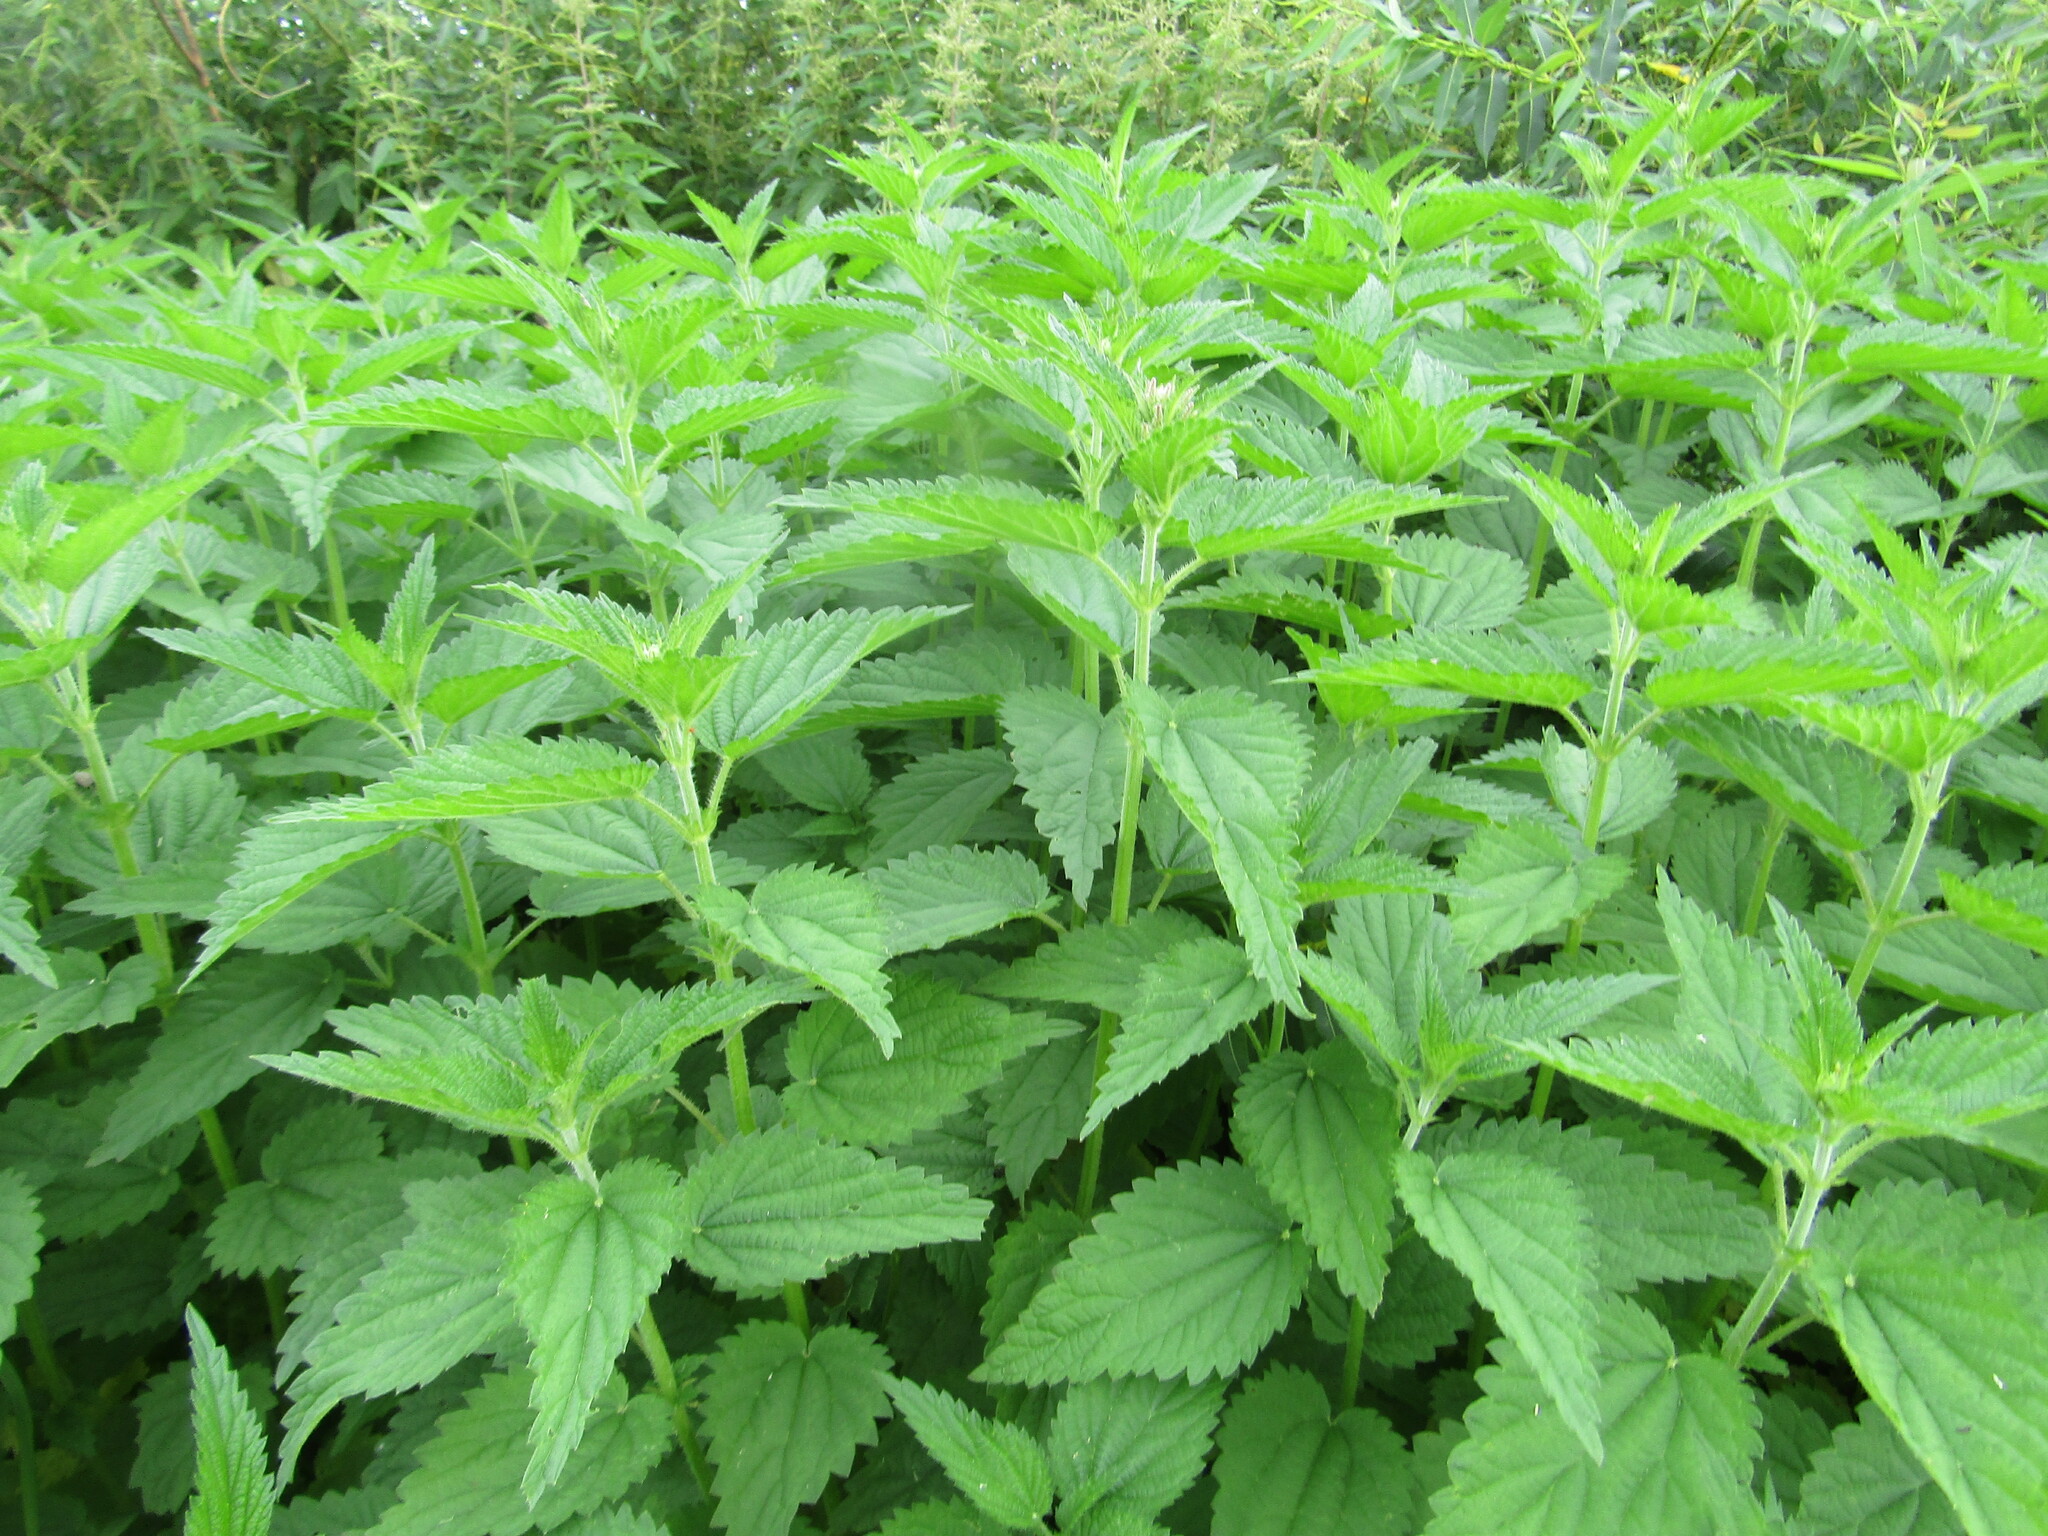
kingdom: Plantae
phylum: Tracheophyta
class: Magnoliopsida
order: Rosales
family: Urticaceae
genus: Urtica
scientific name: Urtica dioica
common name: Common nettle
